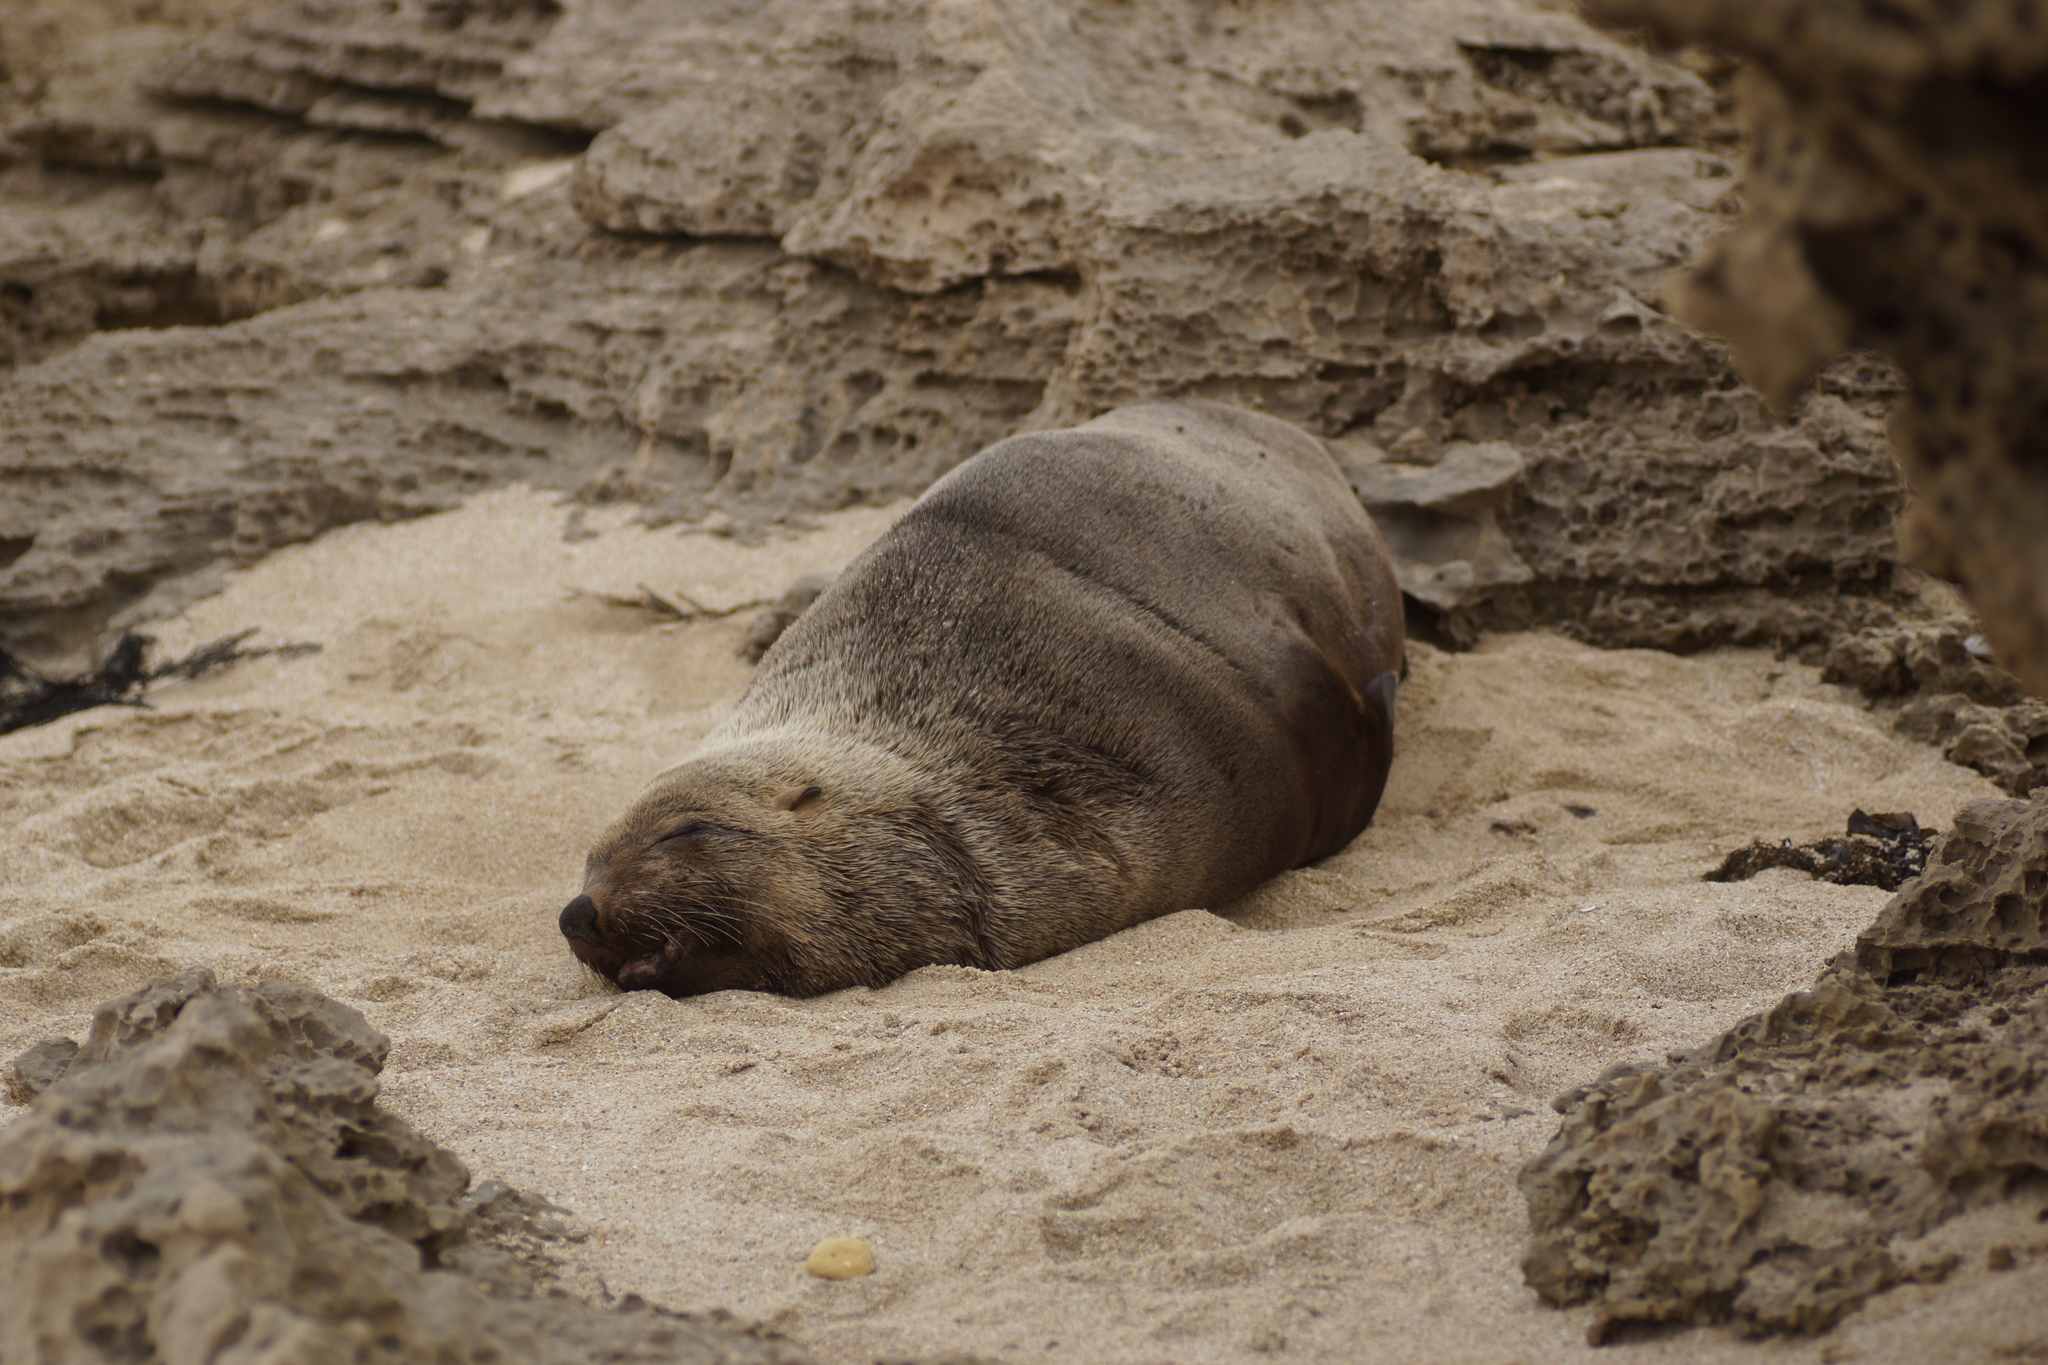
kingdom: Animalia
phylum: Chordata
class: Mammalia
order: Carnivora
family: Otariidae
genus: Arctocephalus
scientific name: Arctocephalus pusillus
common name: Brown fur seal
